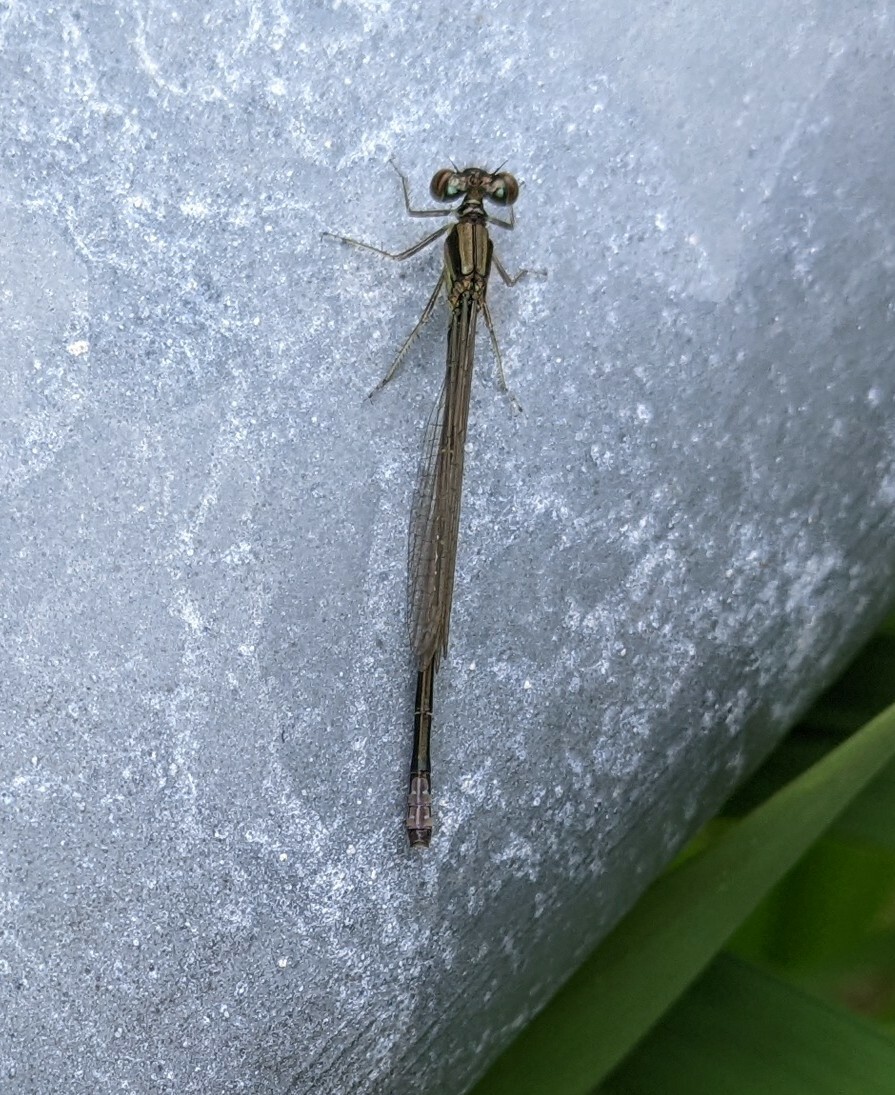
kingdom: Animalia
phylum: Arthropoda
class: Insecta
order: Odonata
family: Coenagrionidae
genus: Ischnura
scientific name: Ischnura verticalis
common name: Eastern forktail
